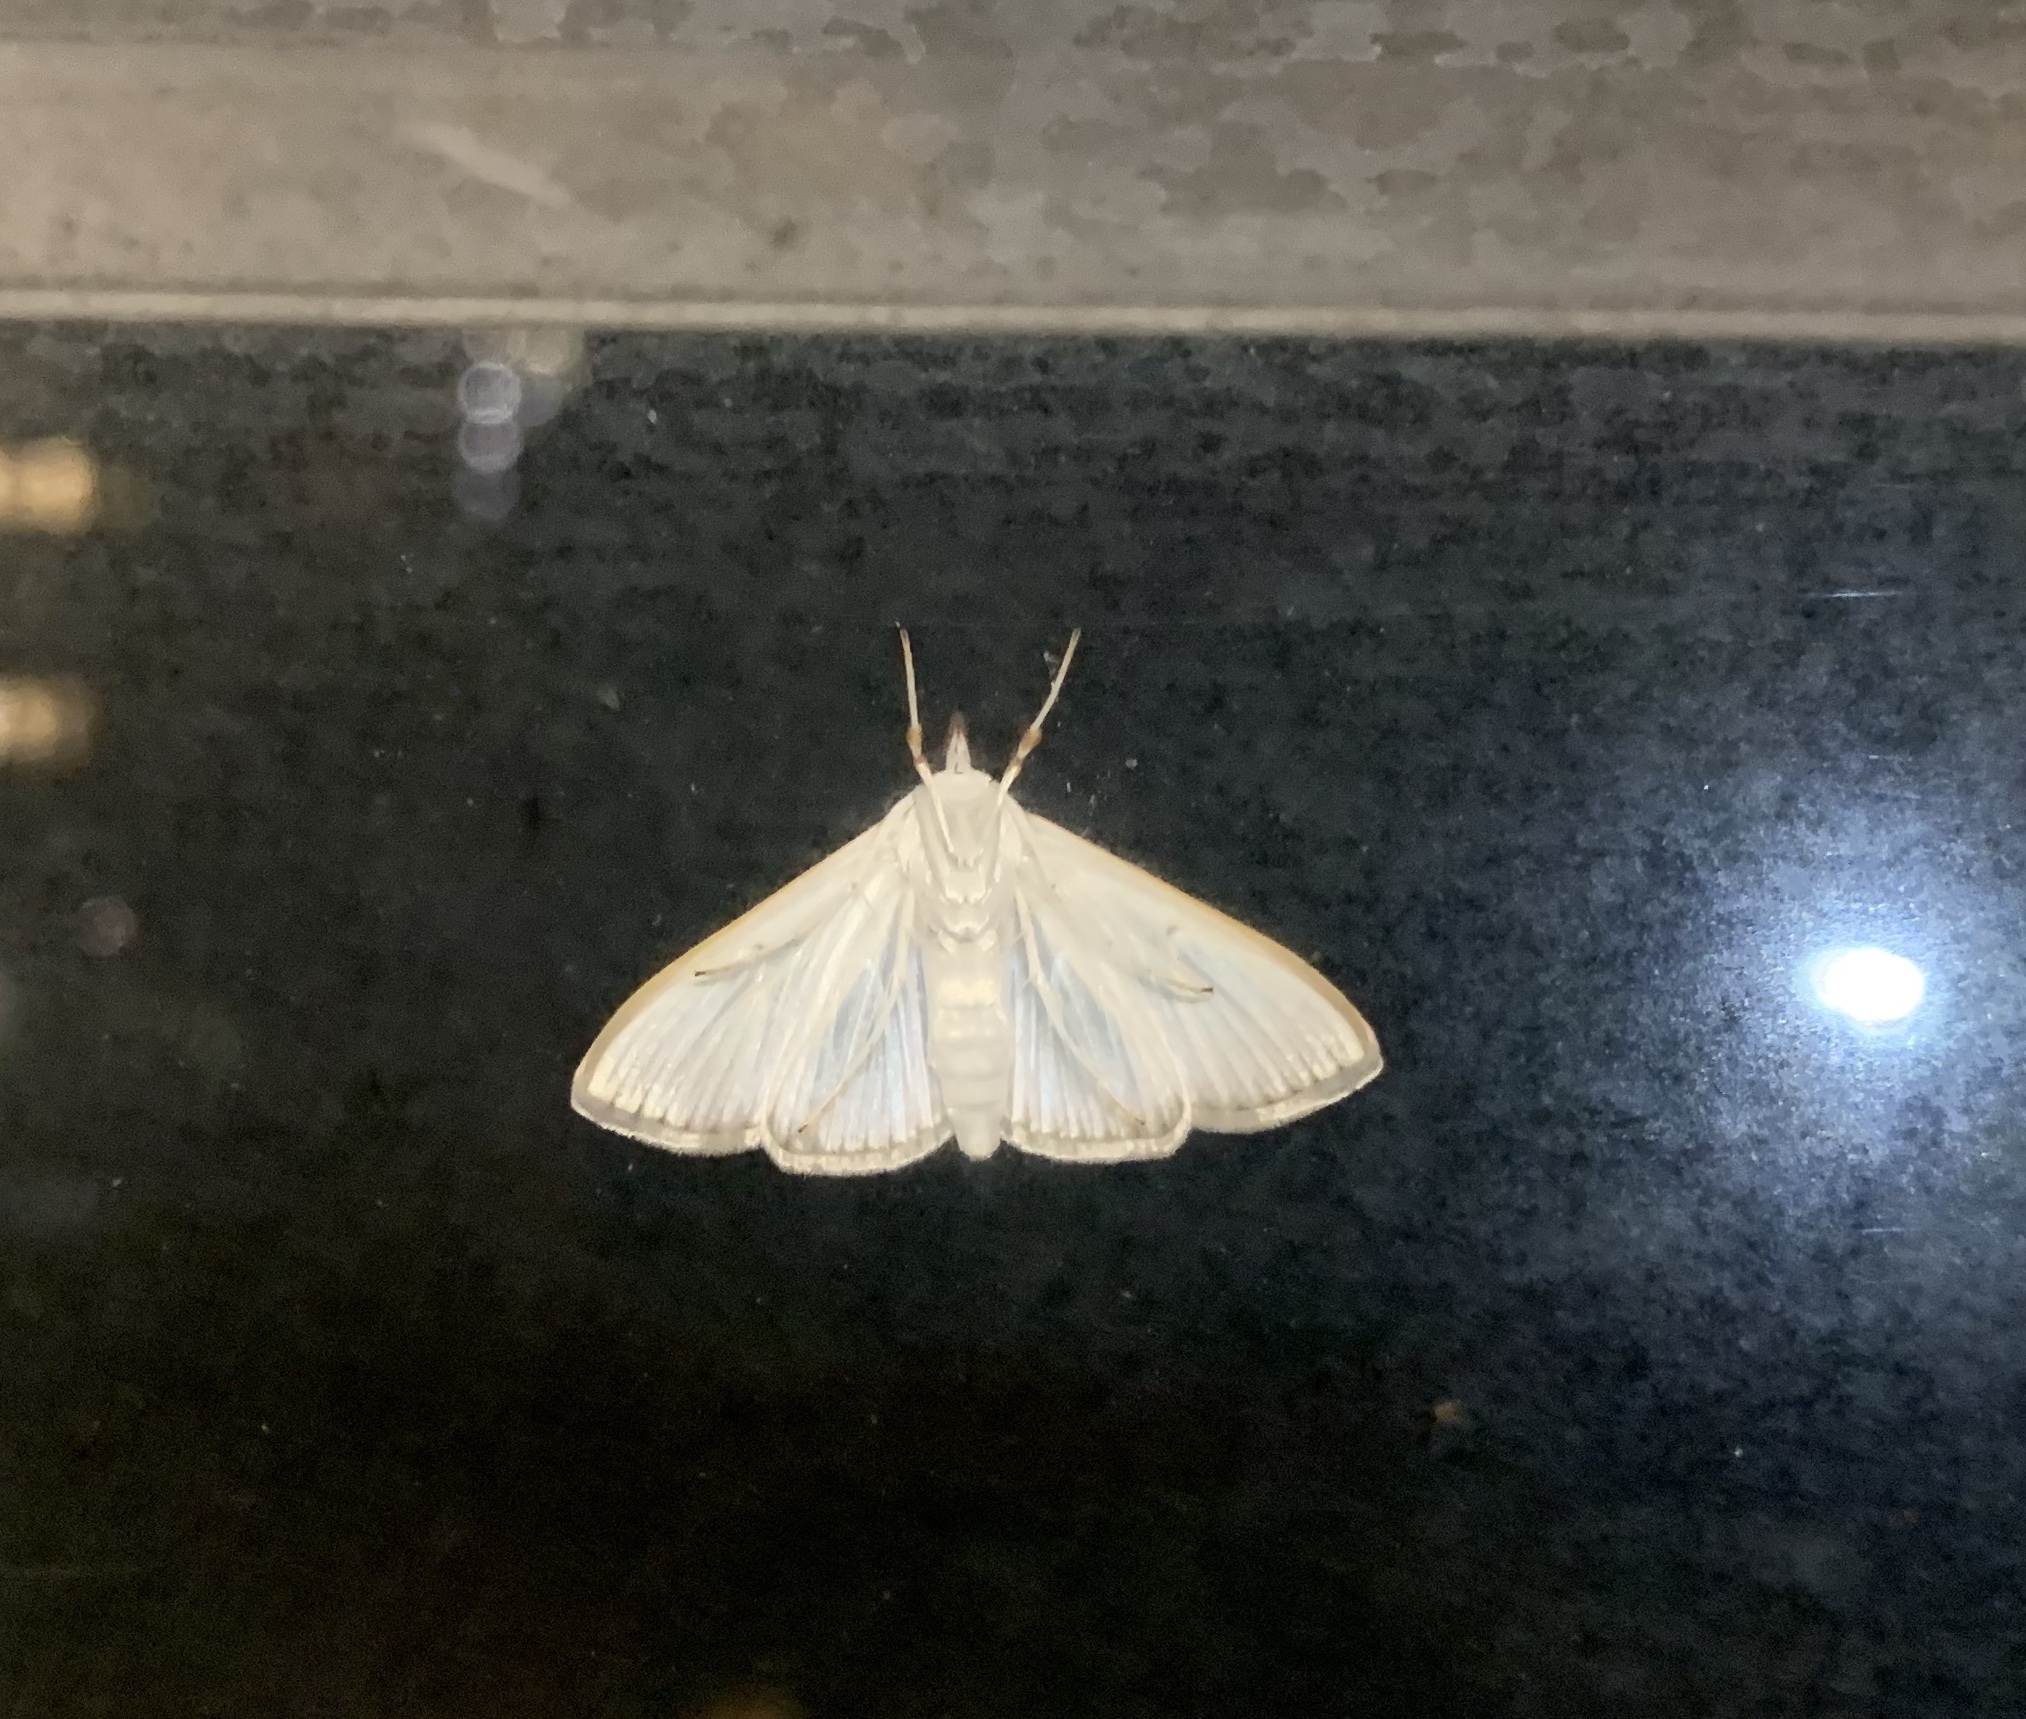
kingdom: Animalia
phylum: Arthropoda
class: Insecta
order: Lepidoptera
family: Crambidae
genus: Diaphania
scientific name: Diaphania costata
